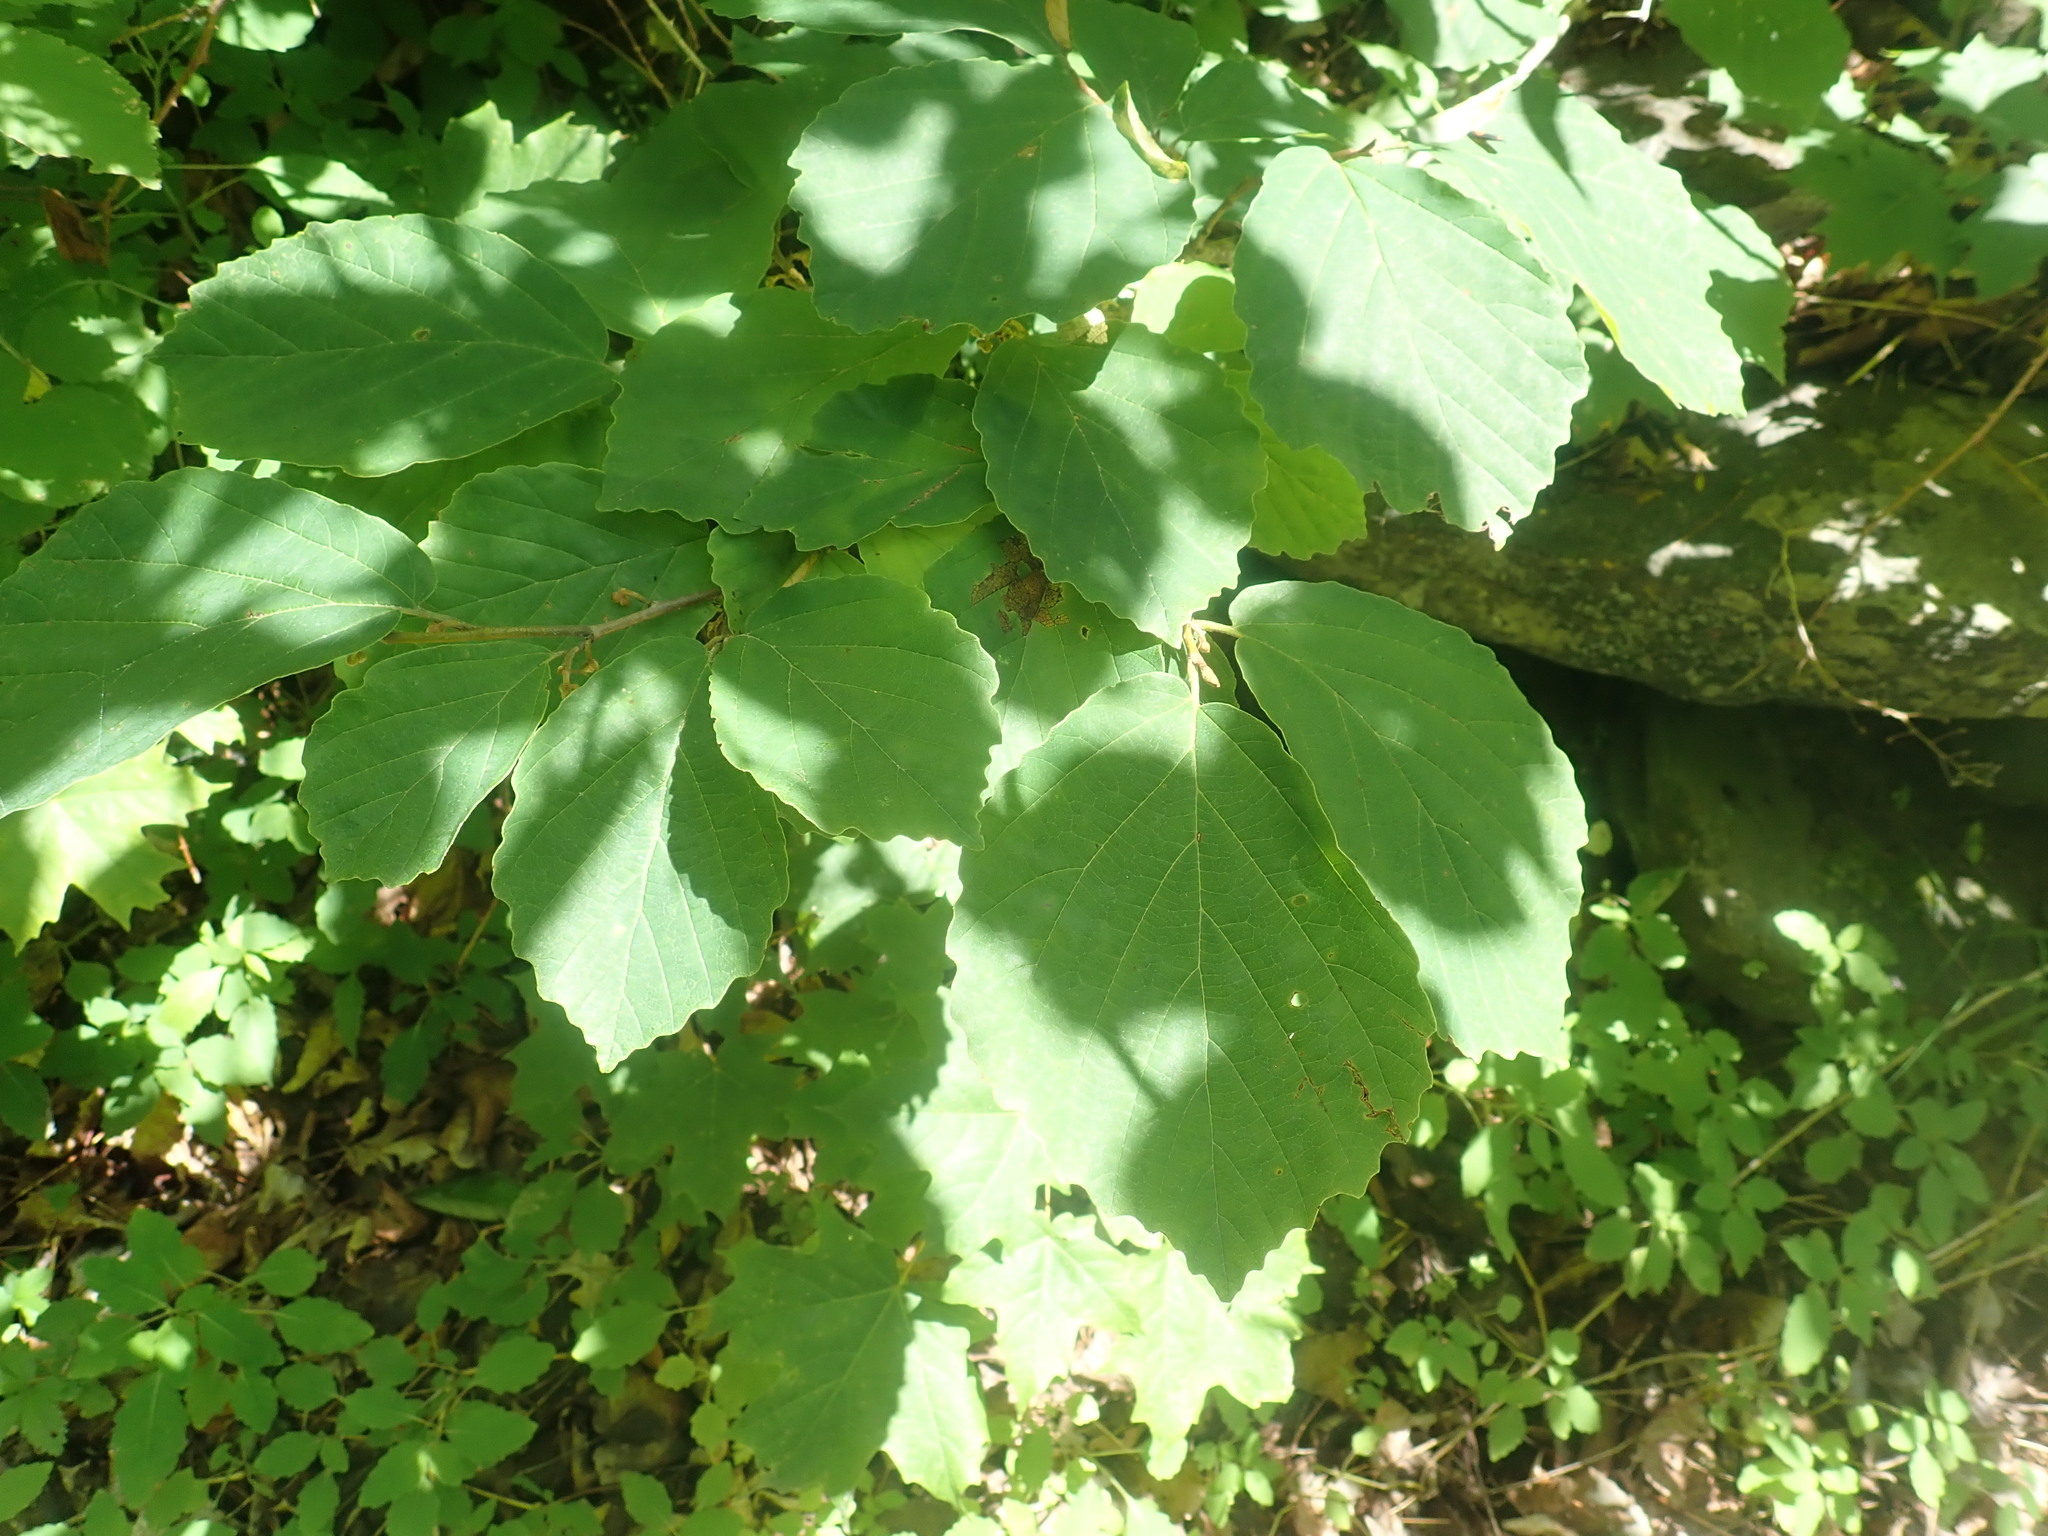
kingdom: Plantae
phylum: Tracheophyta
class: Magnoliopsida
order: Saxifragales
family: Hamamelidaceae
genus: Hamamelis
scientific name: Hamamelis virginiana
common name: Witch-hazel
